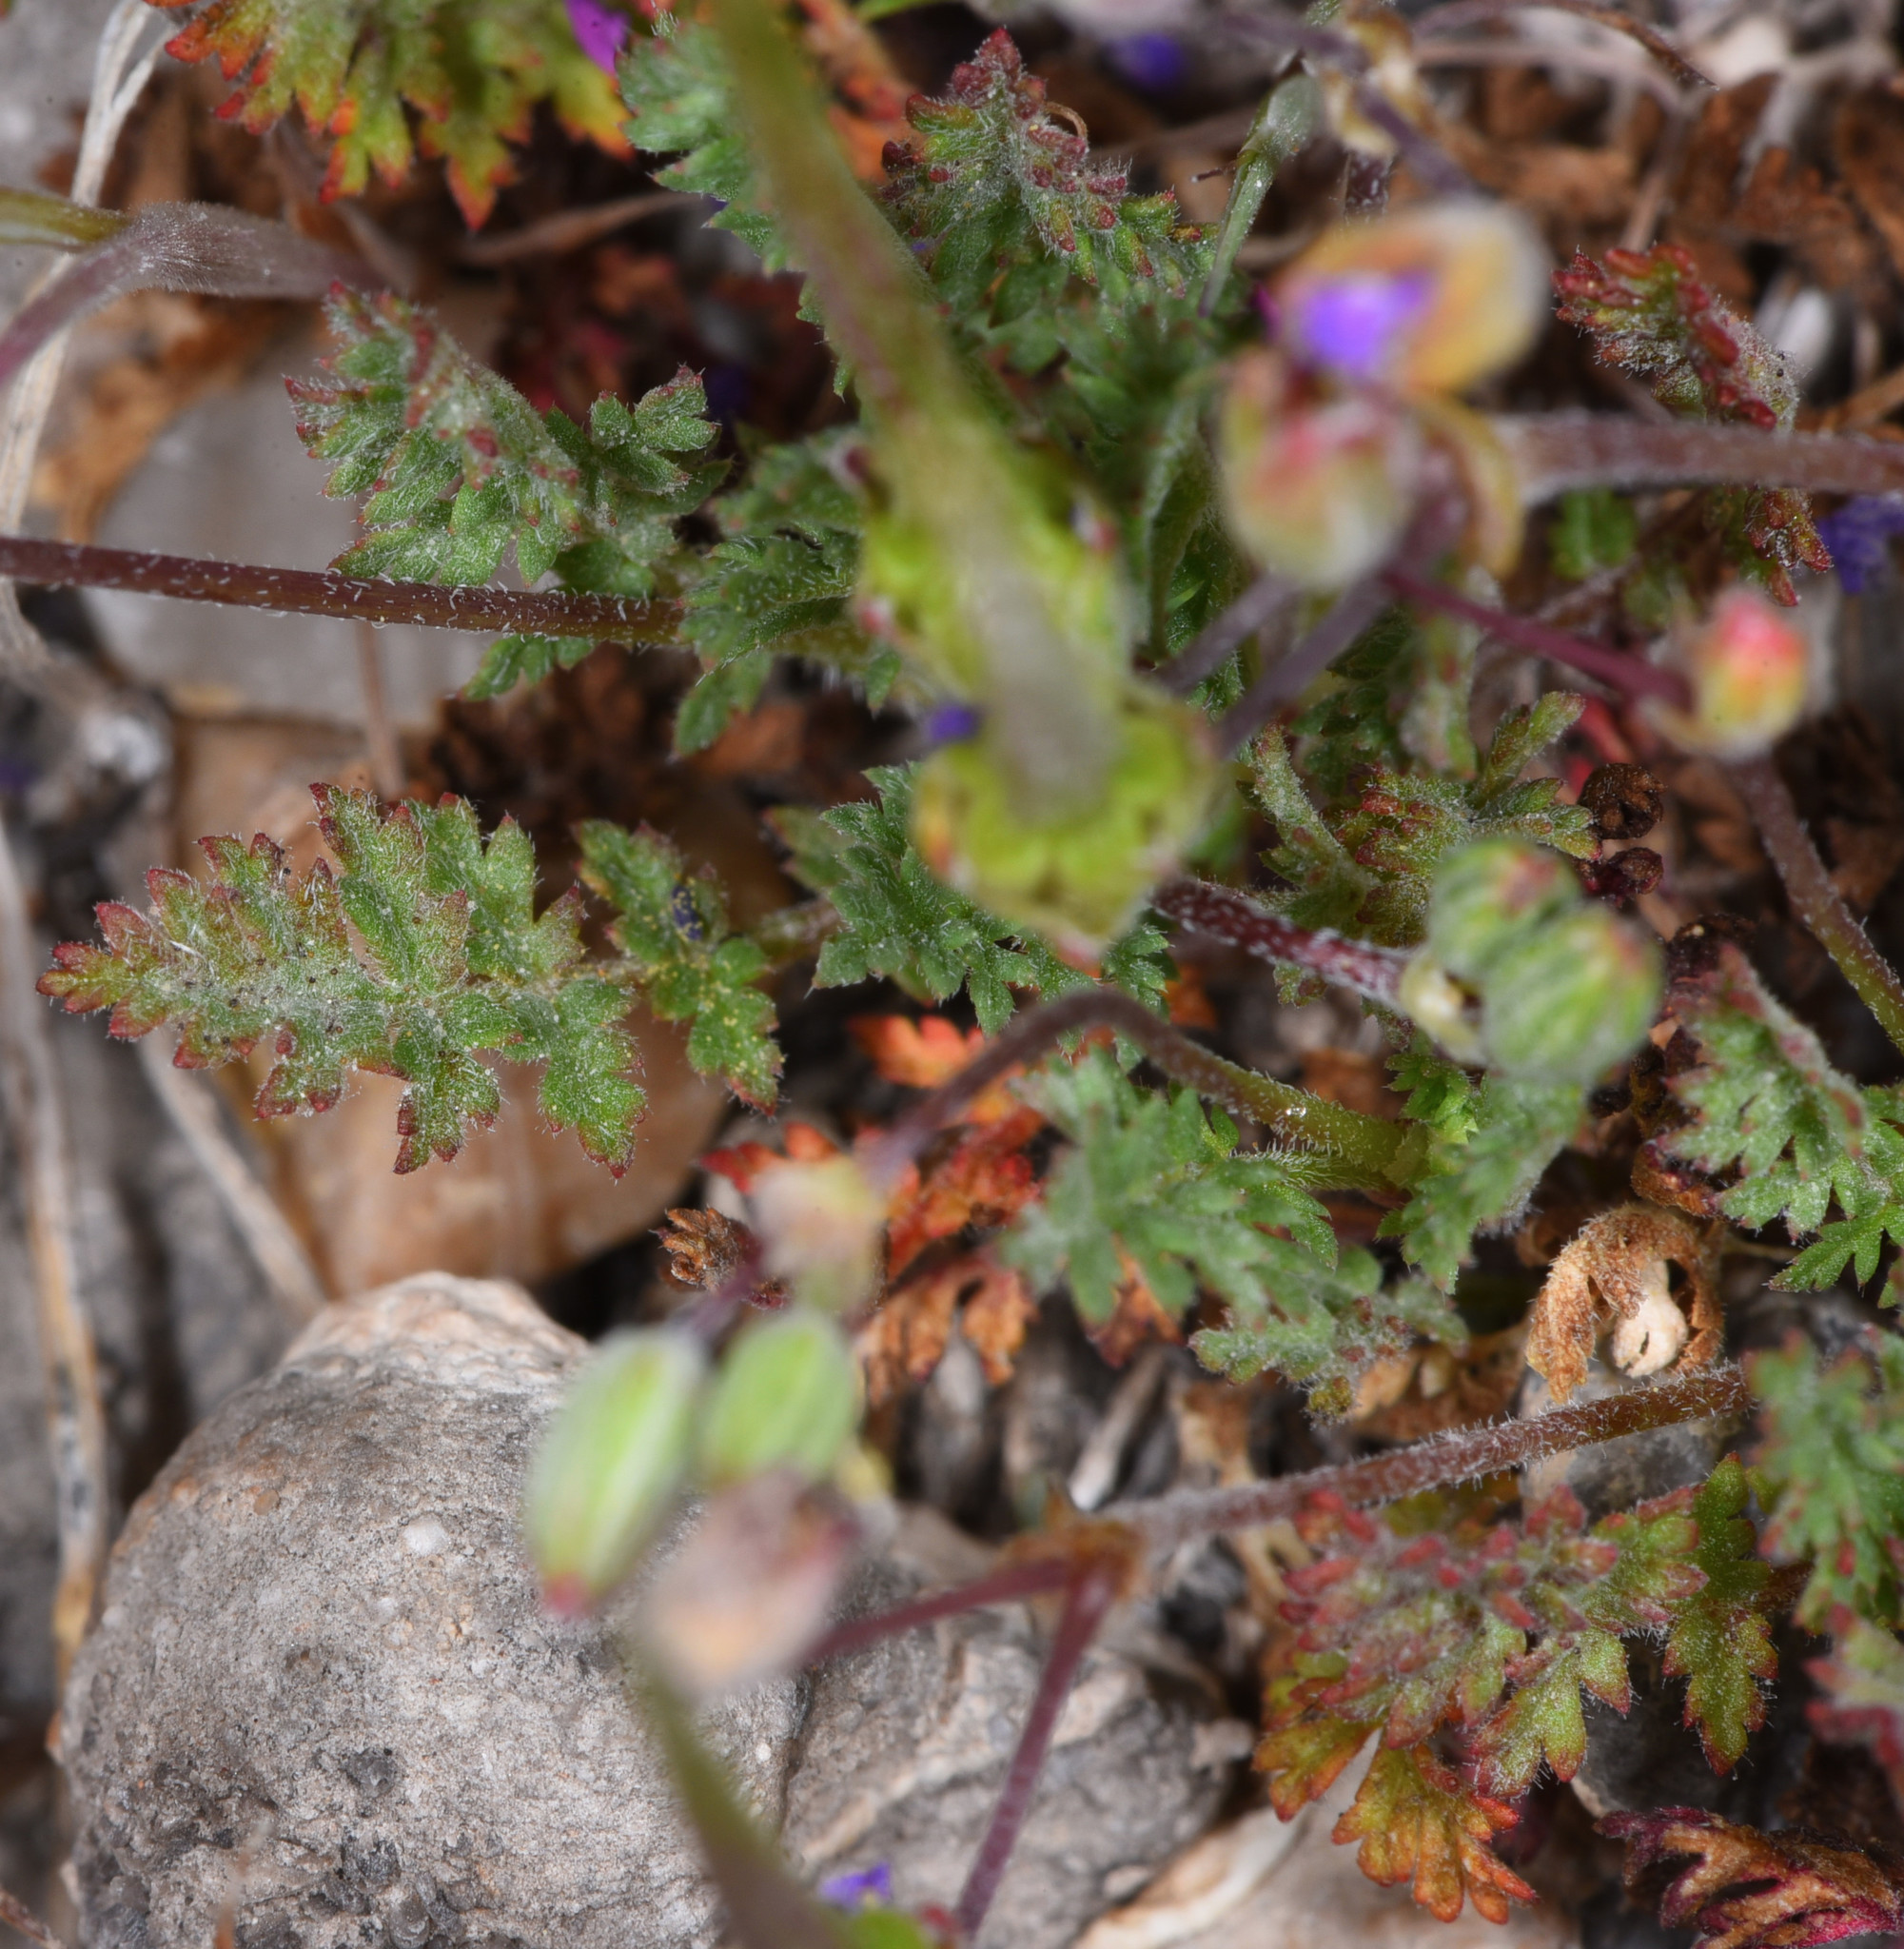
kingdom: Plantae
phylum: Tracheophyta
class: Magnoliopsida
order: Geraniales
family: Geraniaceae
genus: Erodium
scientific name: Erodium cicutarium
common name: Common stork's-bill
